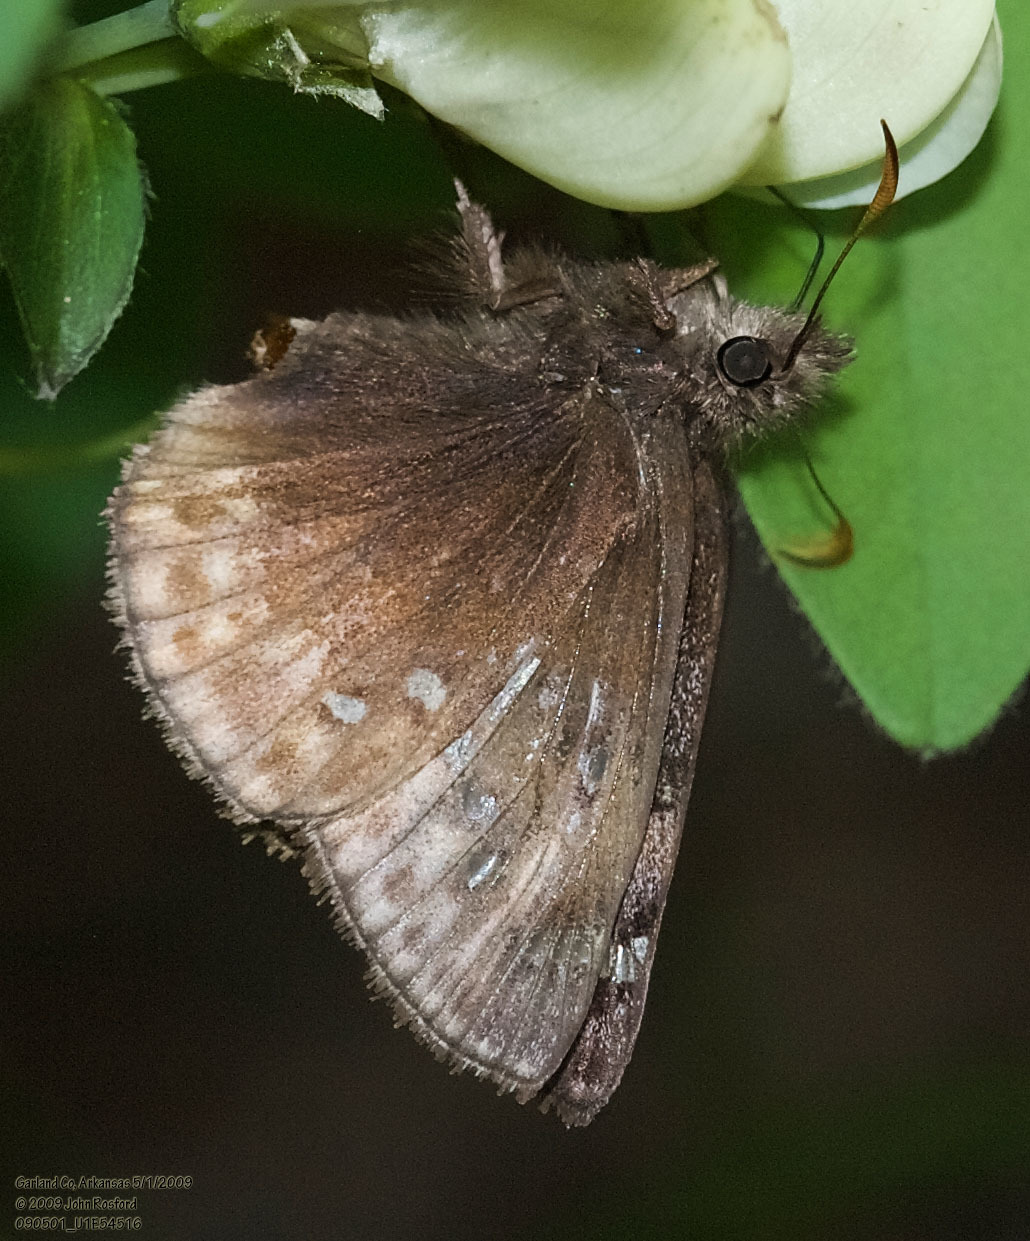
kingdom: Animalia
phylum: Arthropoda
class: Insecta
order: Lepidoptera
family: Hesperiidae
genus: Erynnis
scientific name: Erynnis juvenalis
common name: Juvenal's duskywing
